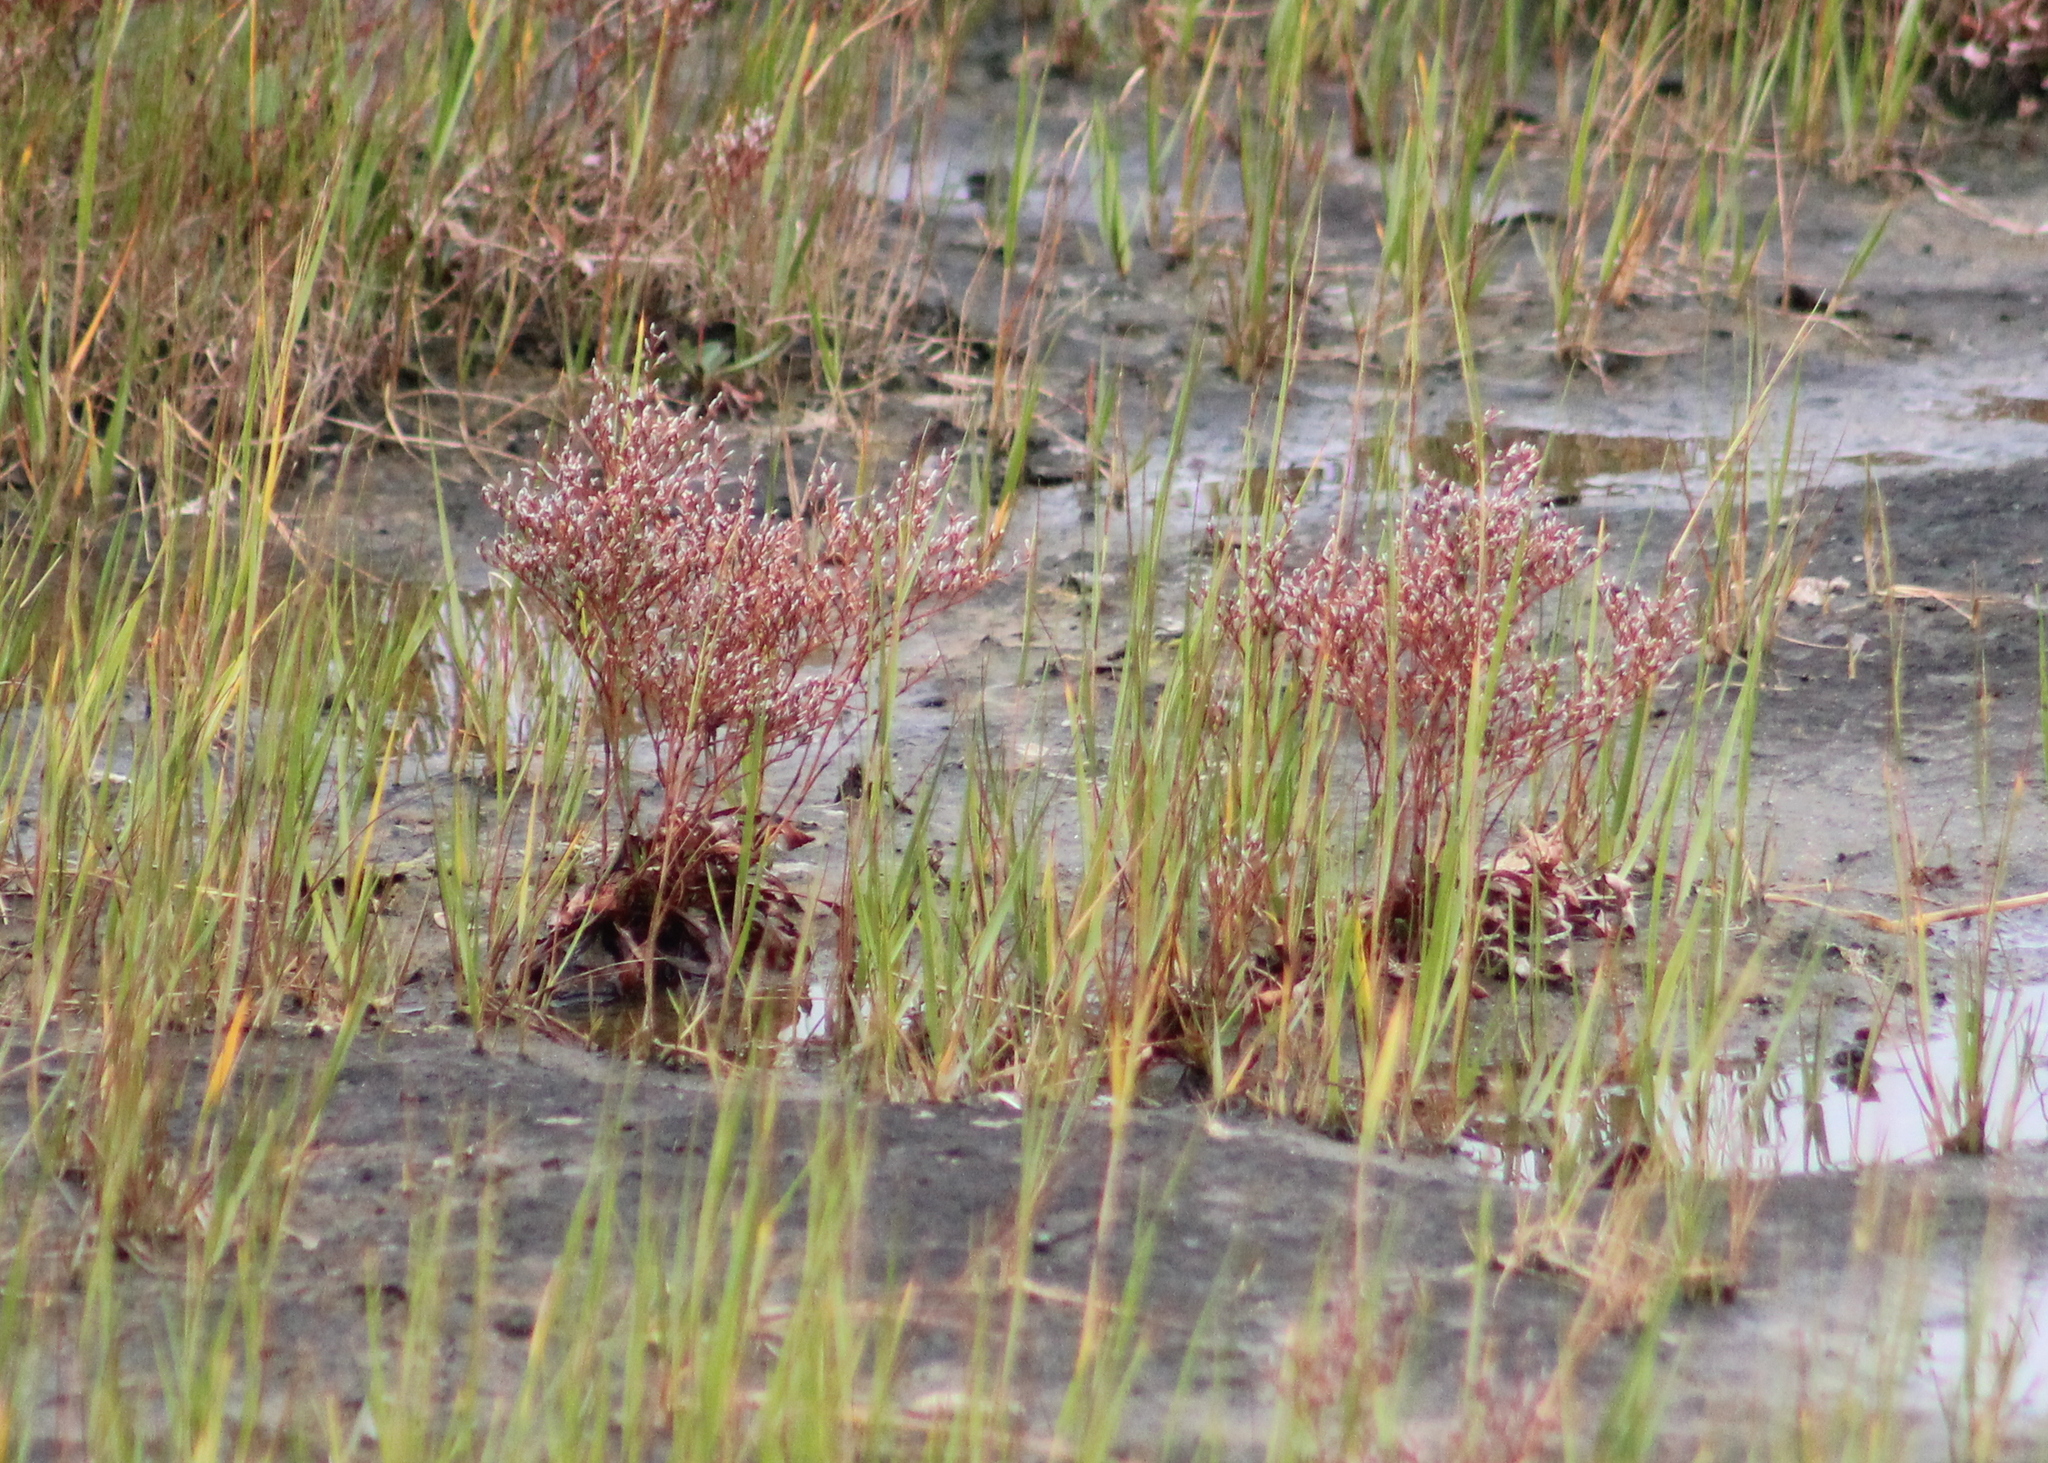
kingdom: Plantae
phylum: Tracheophyta
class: Magnoliopsida
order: Caryophyllales
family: Plumbaginaceae
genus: Limonium
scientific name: Limonium carolinianum
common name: Carolina sea lavender
